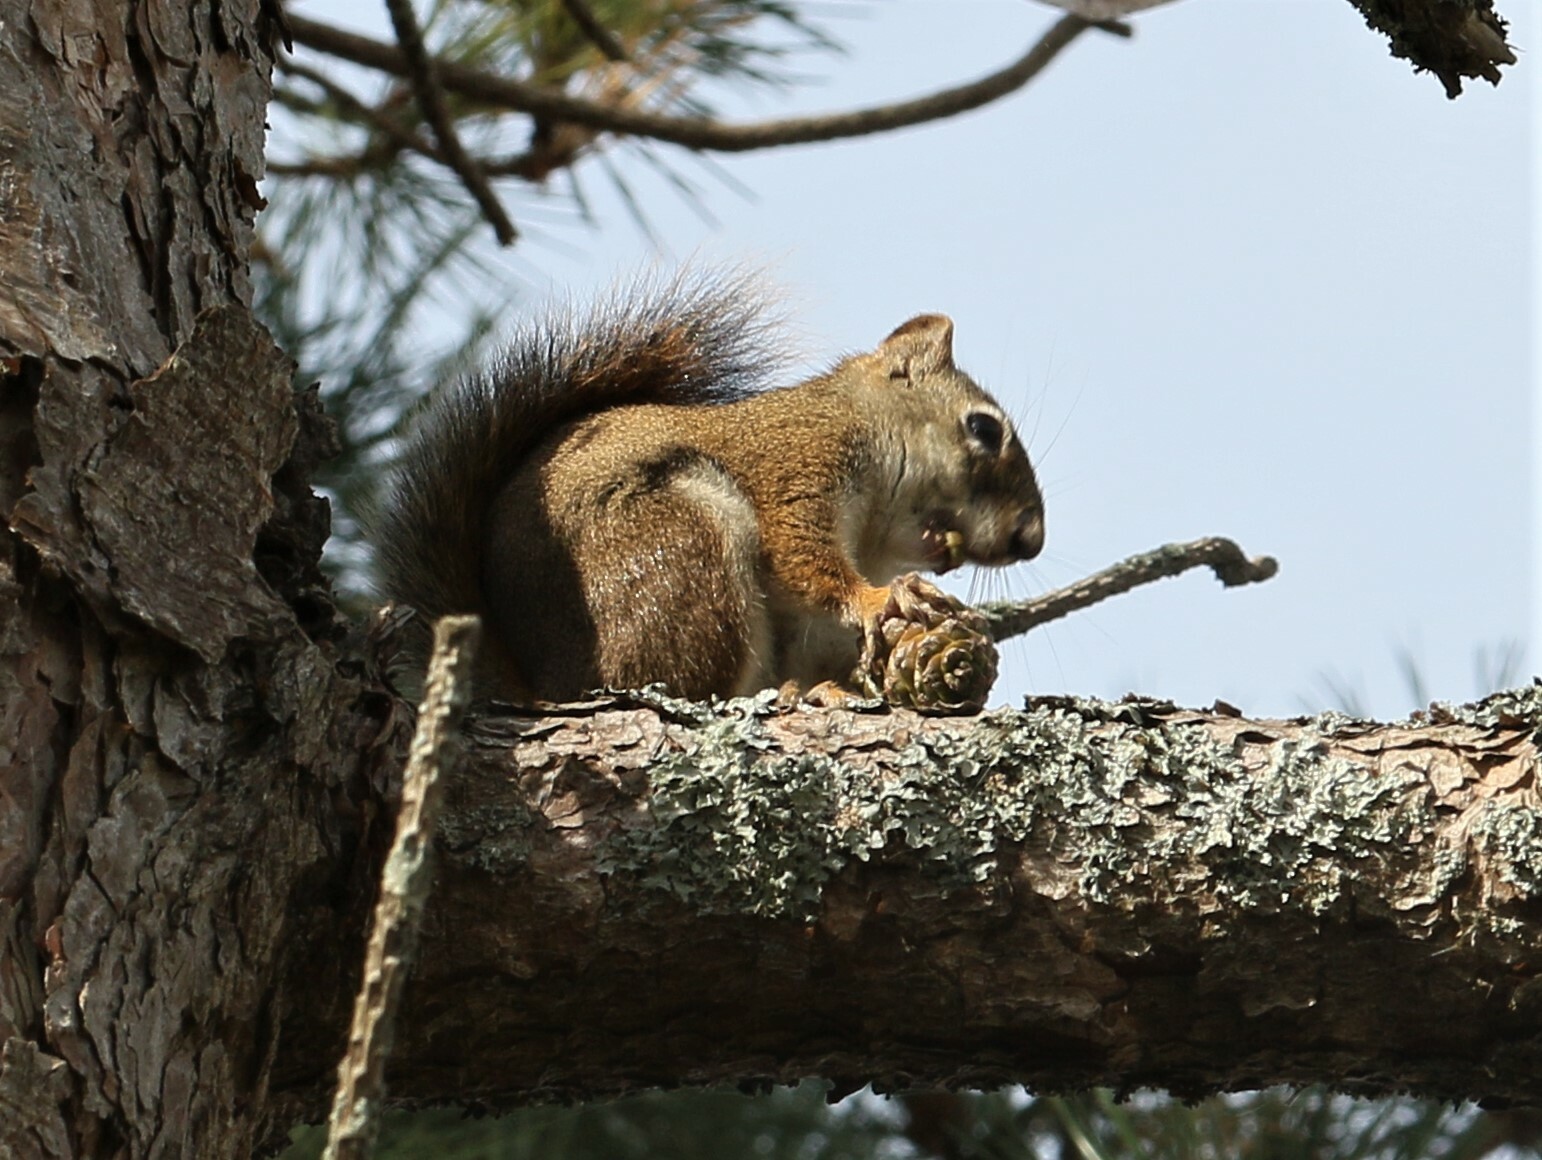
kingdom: Animalia
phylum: Chordata
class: Mammalia
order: Rodentia
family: Sciuridae
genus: Tamiasciurus
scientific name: Tamiasciurus hudsonicus
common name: Red squirrel
